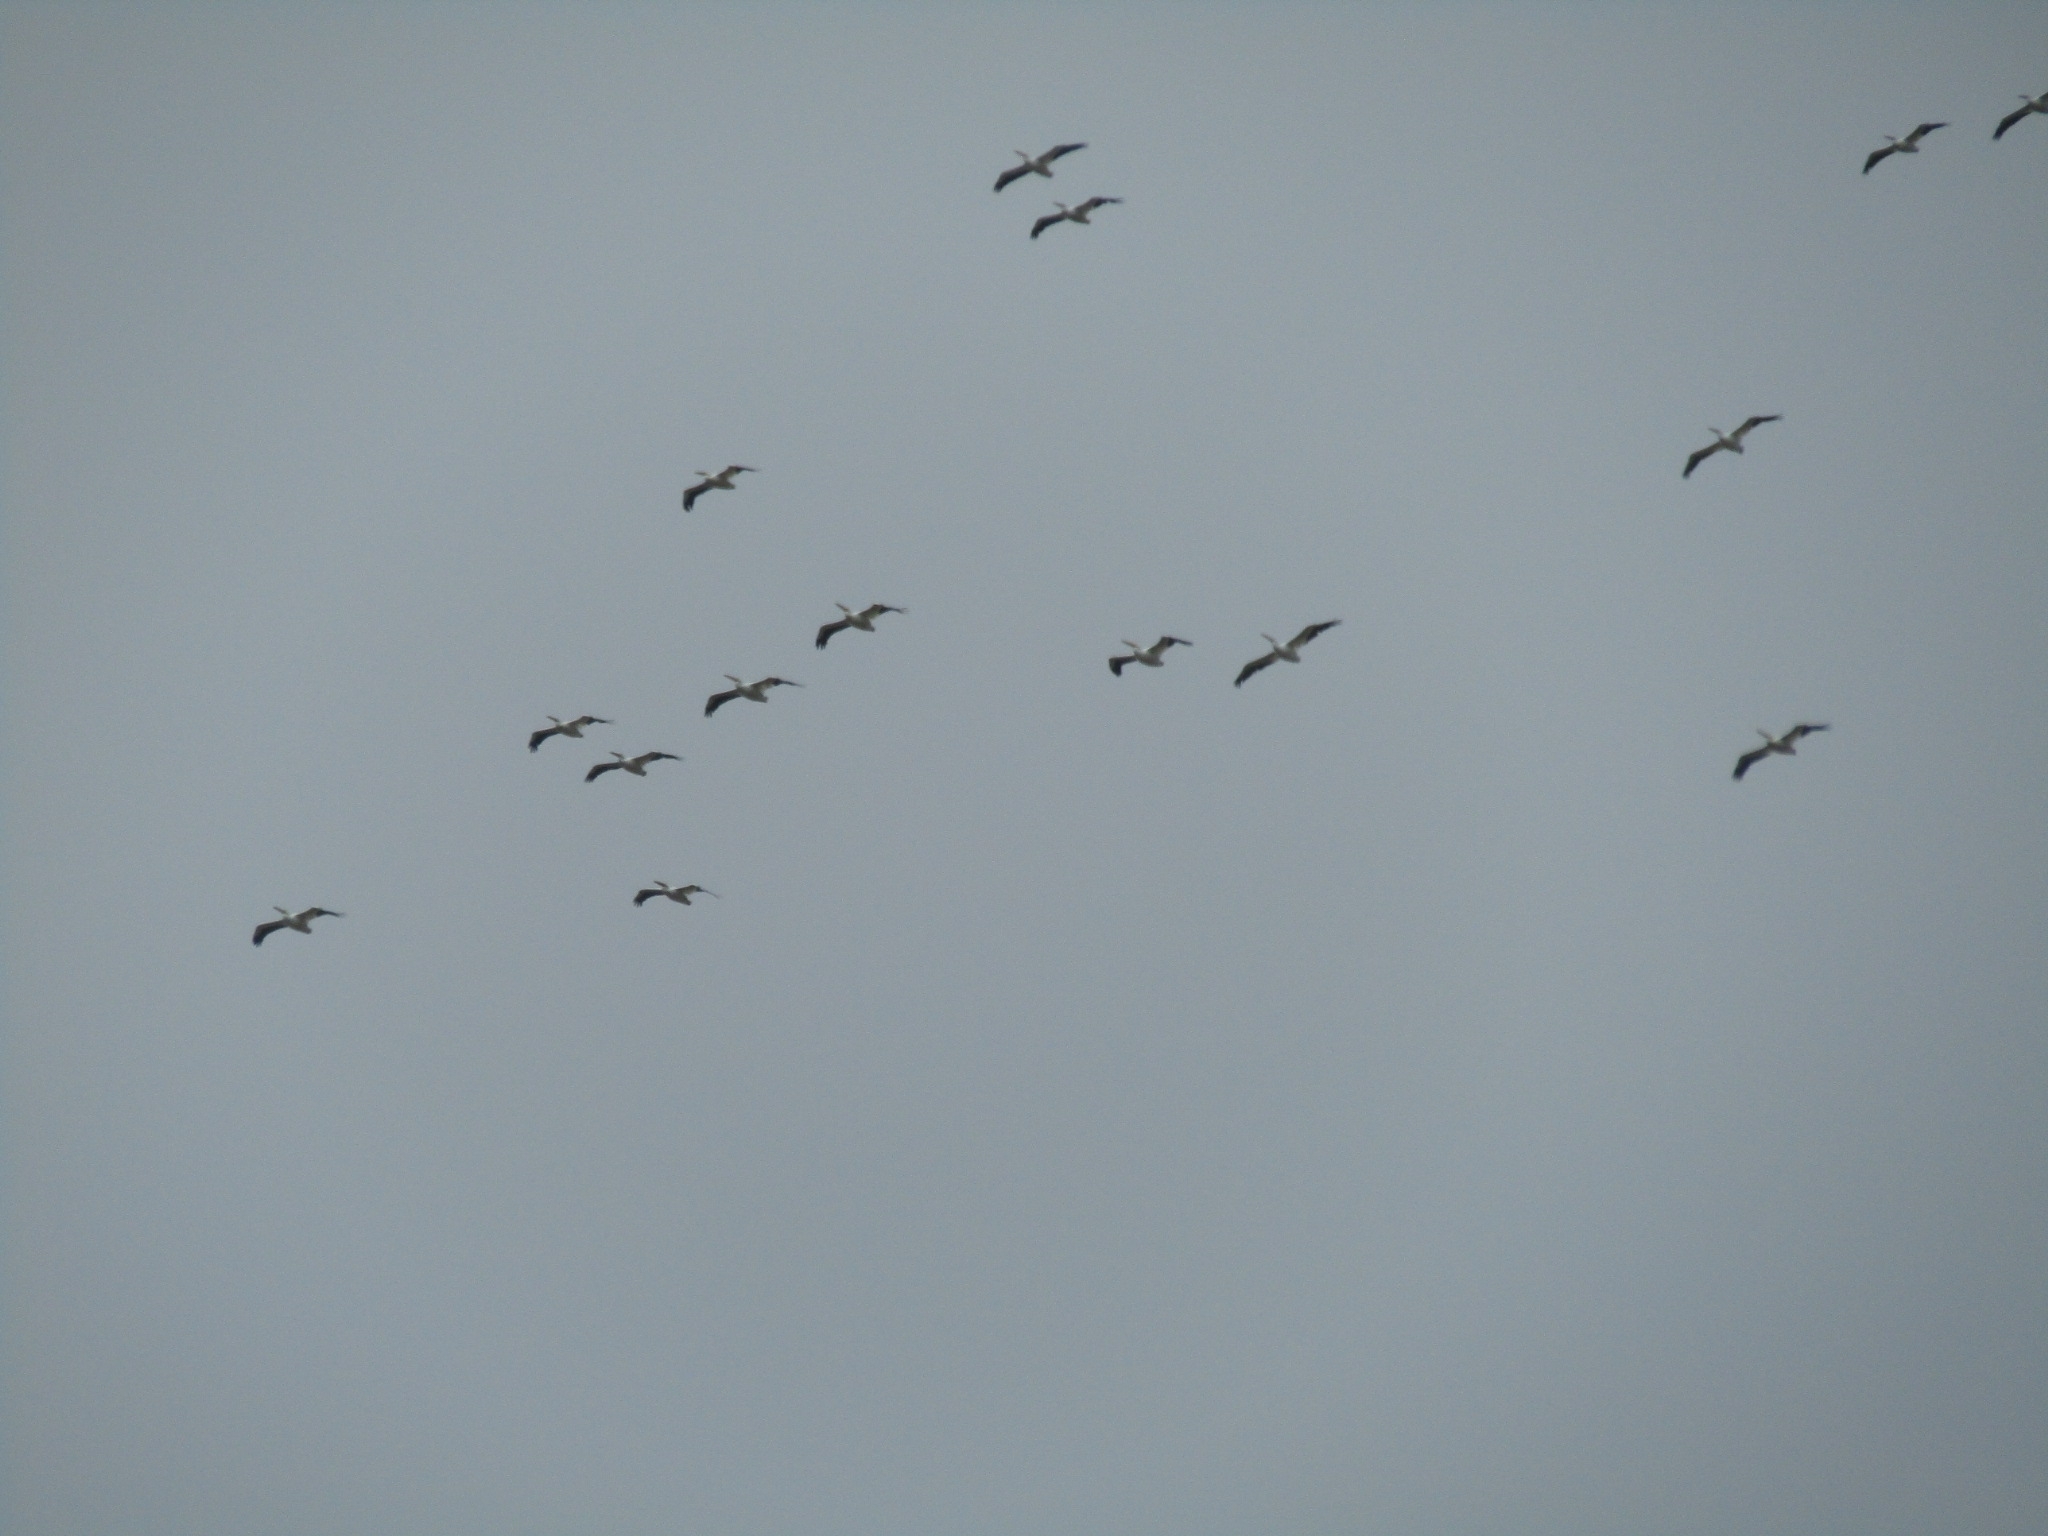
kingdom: Animalia
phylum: Chordata
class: Aves
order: Pelecaniformes
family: Pelecanidae
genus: Pelecanus
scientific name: Pelecanus erythrorhynchos
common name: American white pelican
